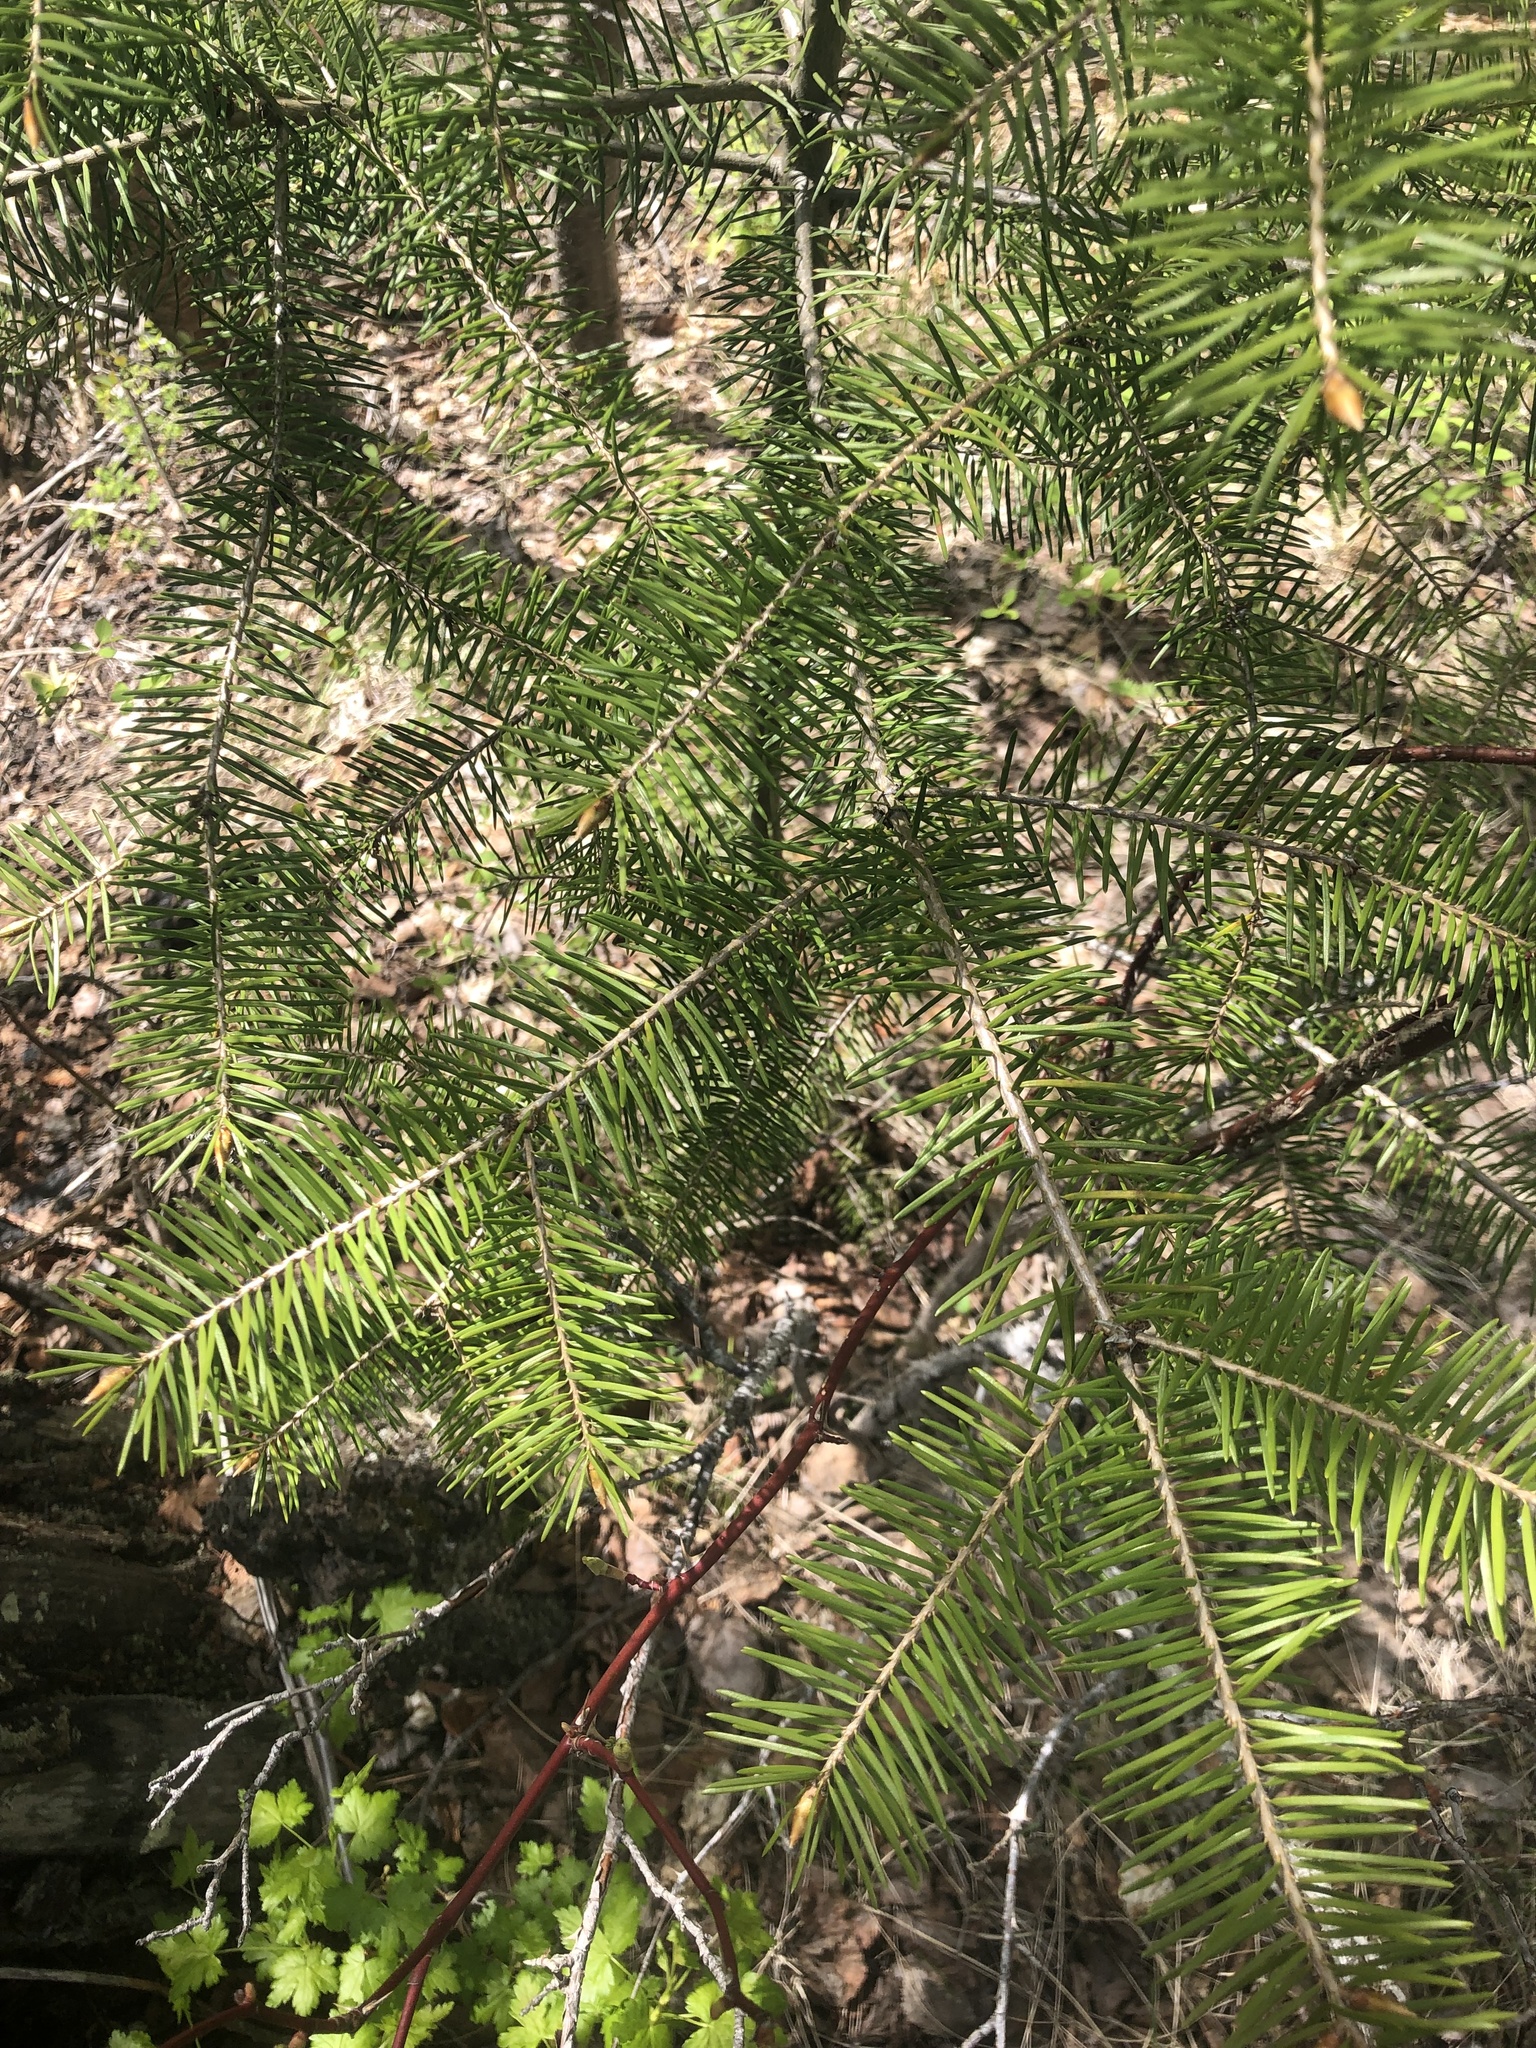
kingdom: Plantae
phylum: Tracheophyta
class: Pinopsida
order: Pinales
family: Pinaceae
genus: Pseudotsuga
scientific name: Pseudotsuga menziesii
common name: Douglas fir
